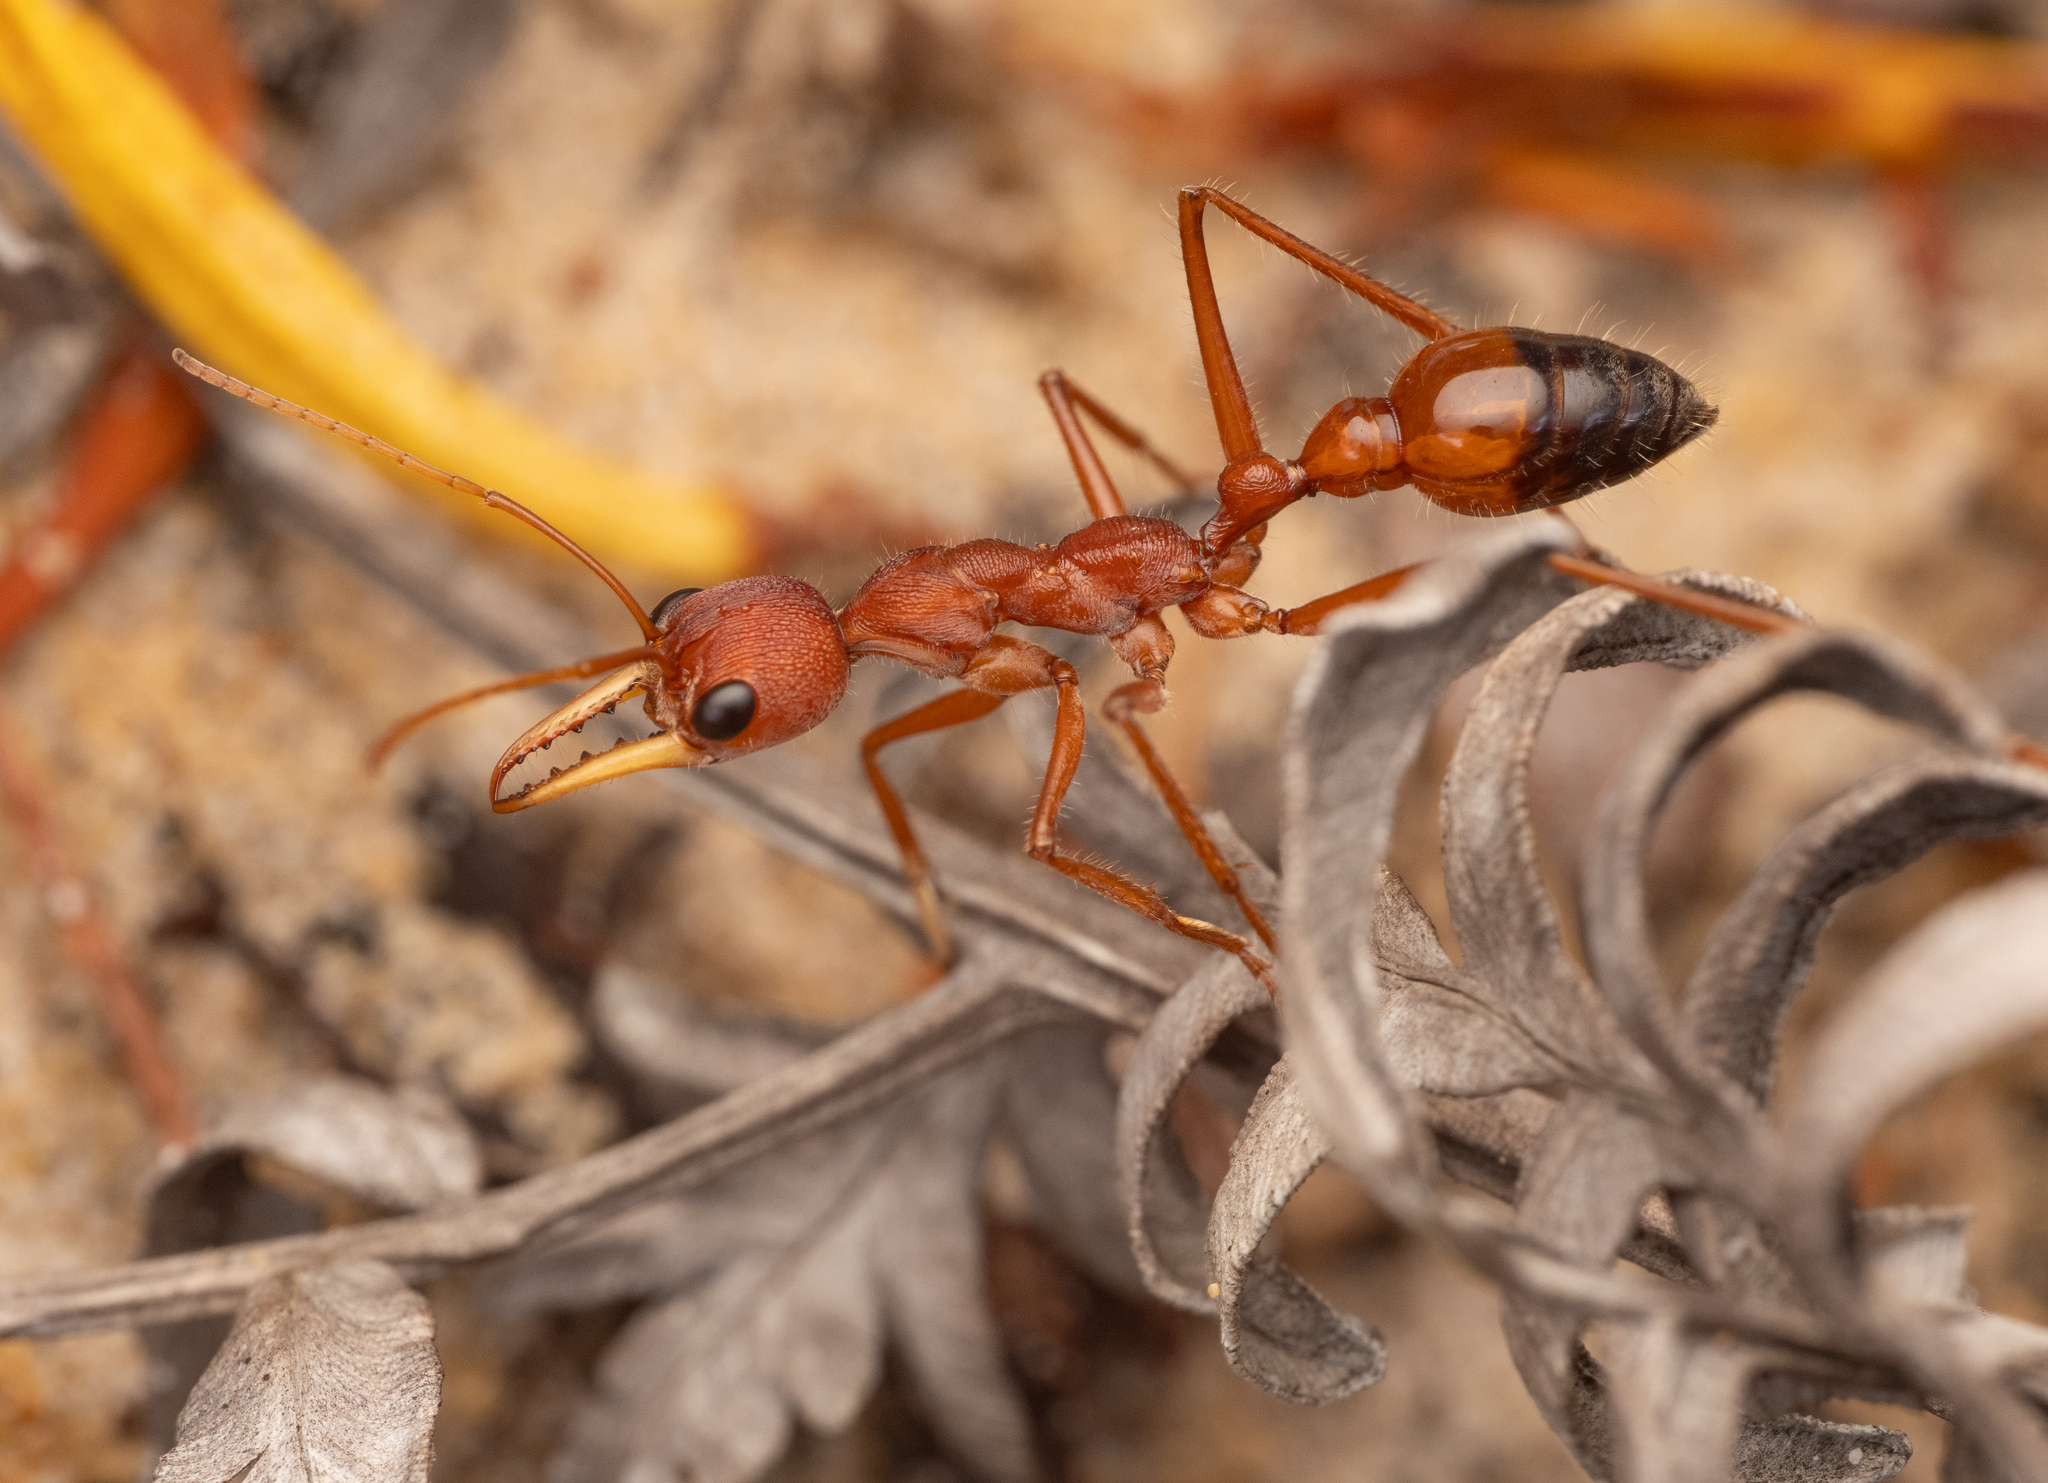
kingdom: Animalia
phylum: Arthropoda
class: Insecta
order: Hymenoptera
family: Formicidae
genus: Myrmecia
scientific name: Myrmecia gulosa
